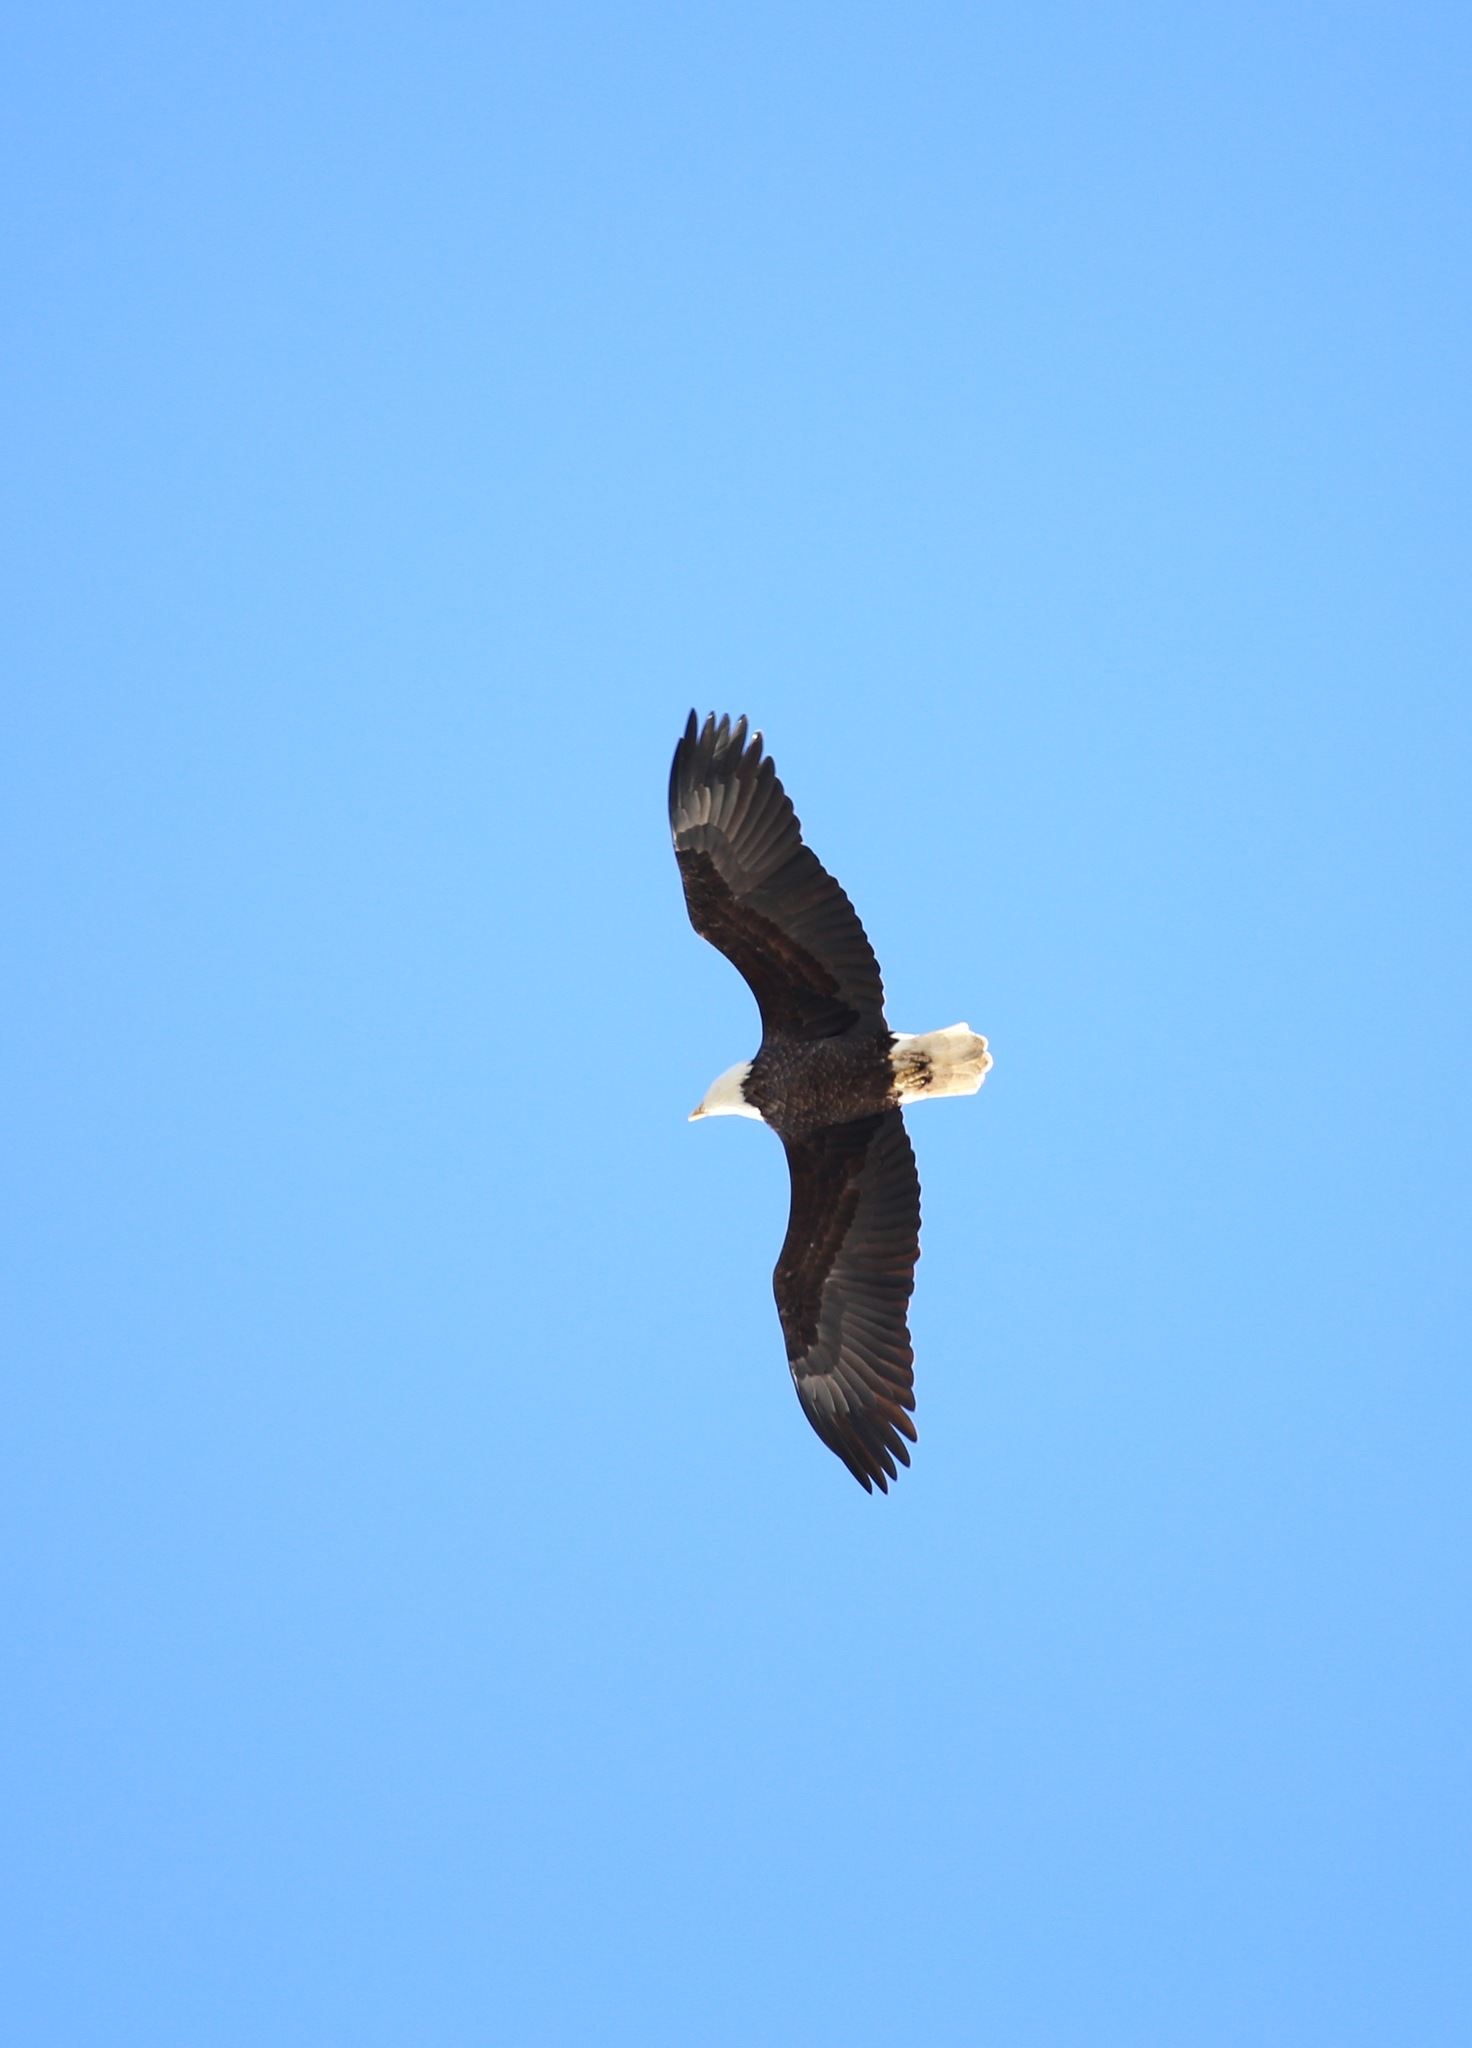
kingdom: Animalia
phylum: Chordata
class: Aves
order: Accipitriformes
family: Accipitridae
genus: Haliaeetus
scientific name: Haliaeetus leucocephalus
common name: Bald eagle
